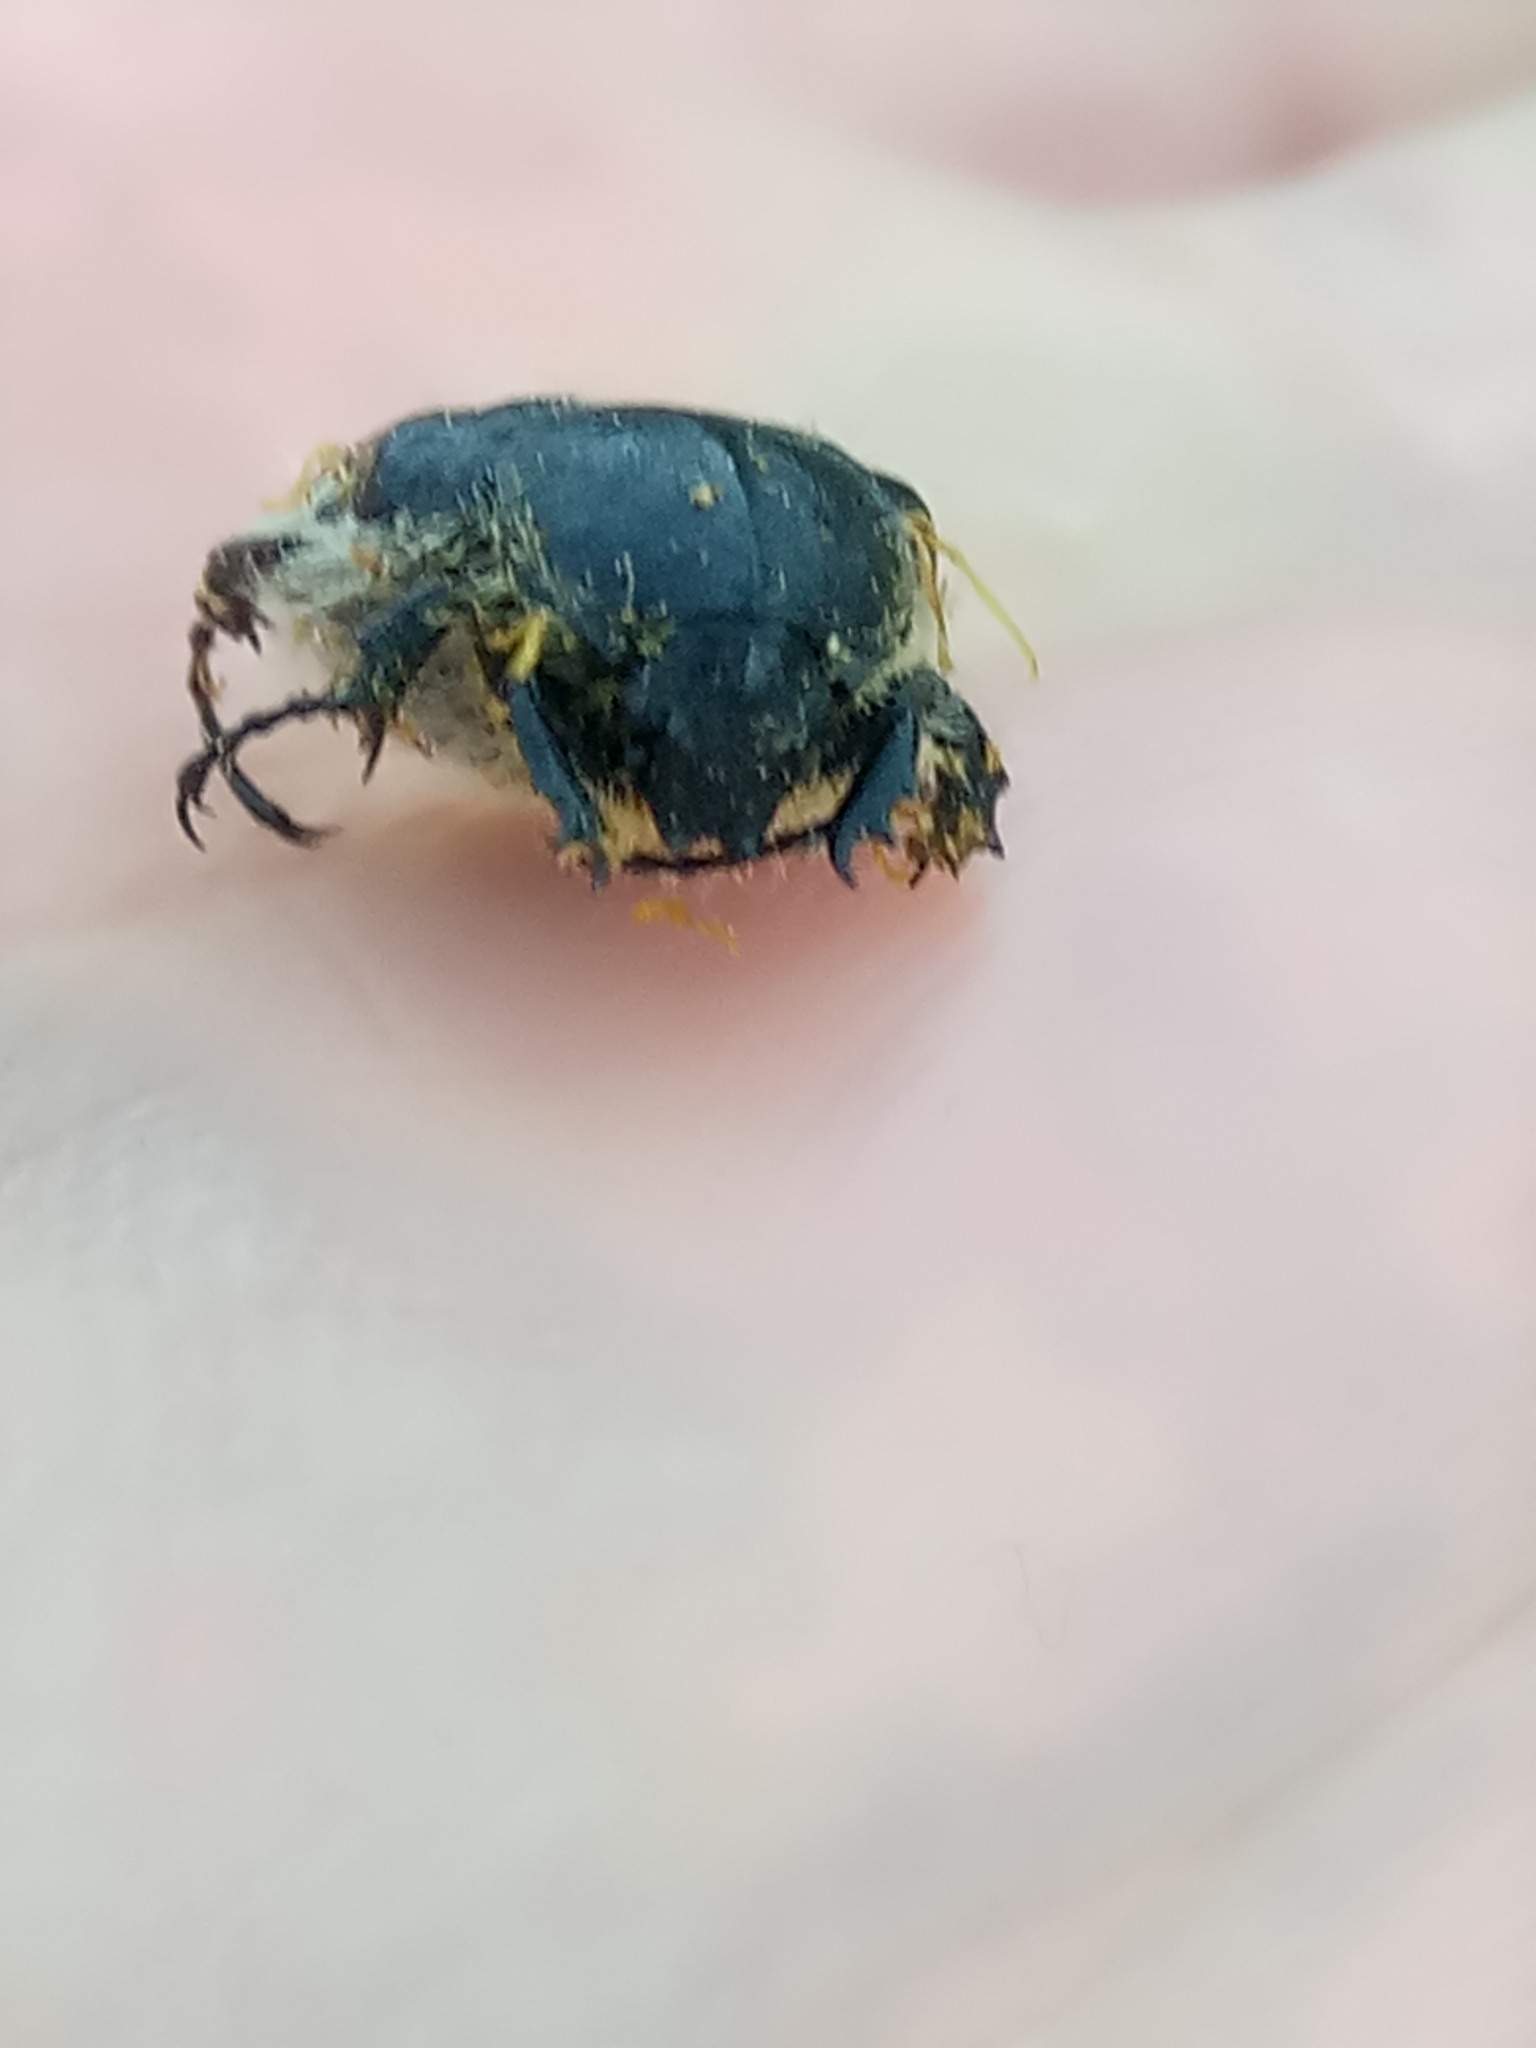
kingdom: Animalia
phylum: Arthropoda
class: Insecta
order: Coleoptera
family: Scarabaeidae
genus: Tropinota
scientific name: Tropinota squalida
